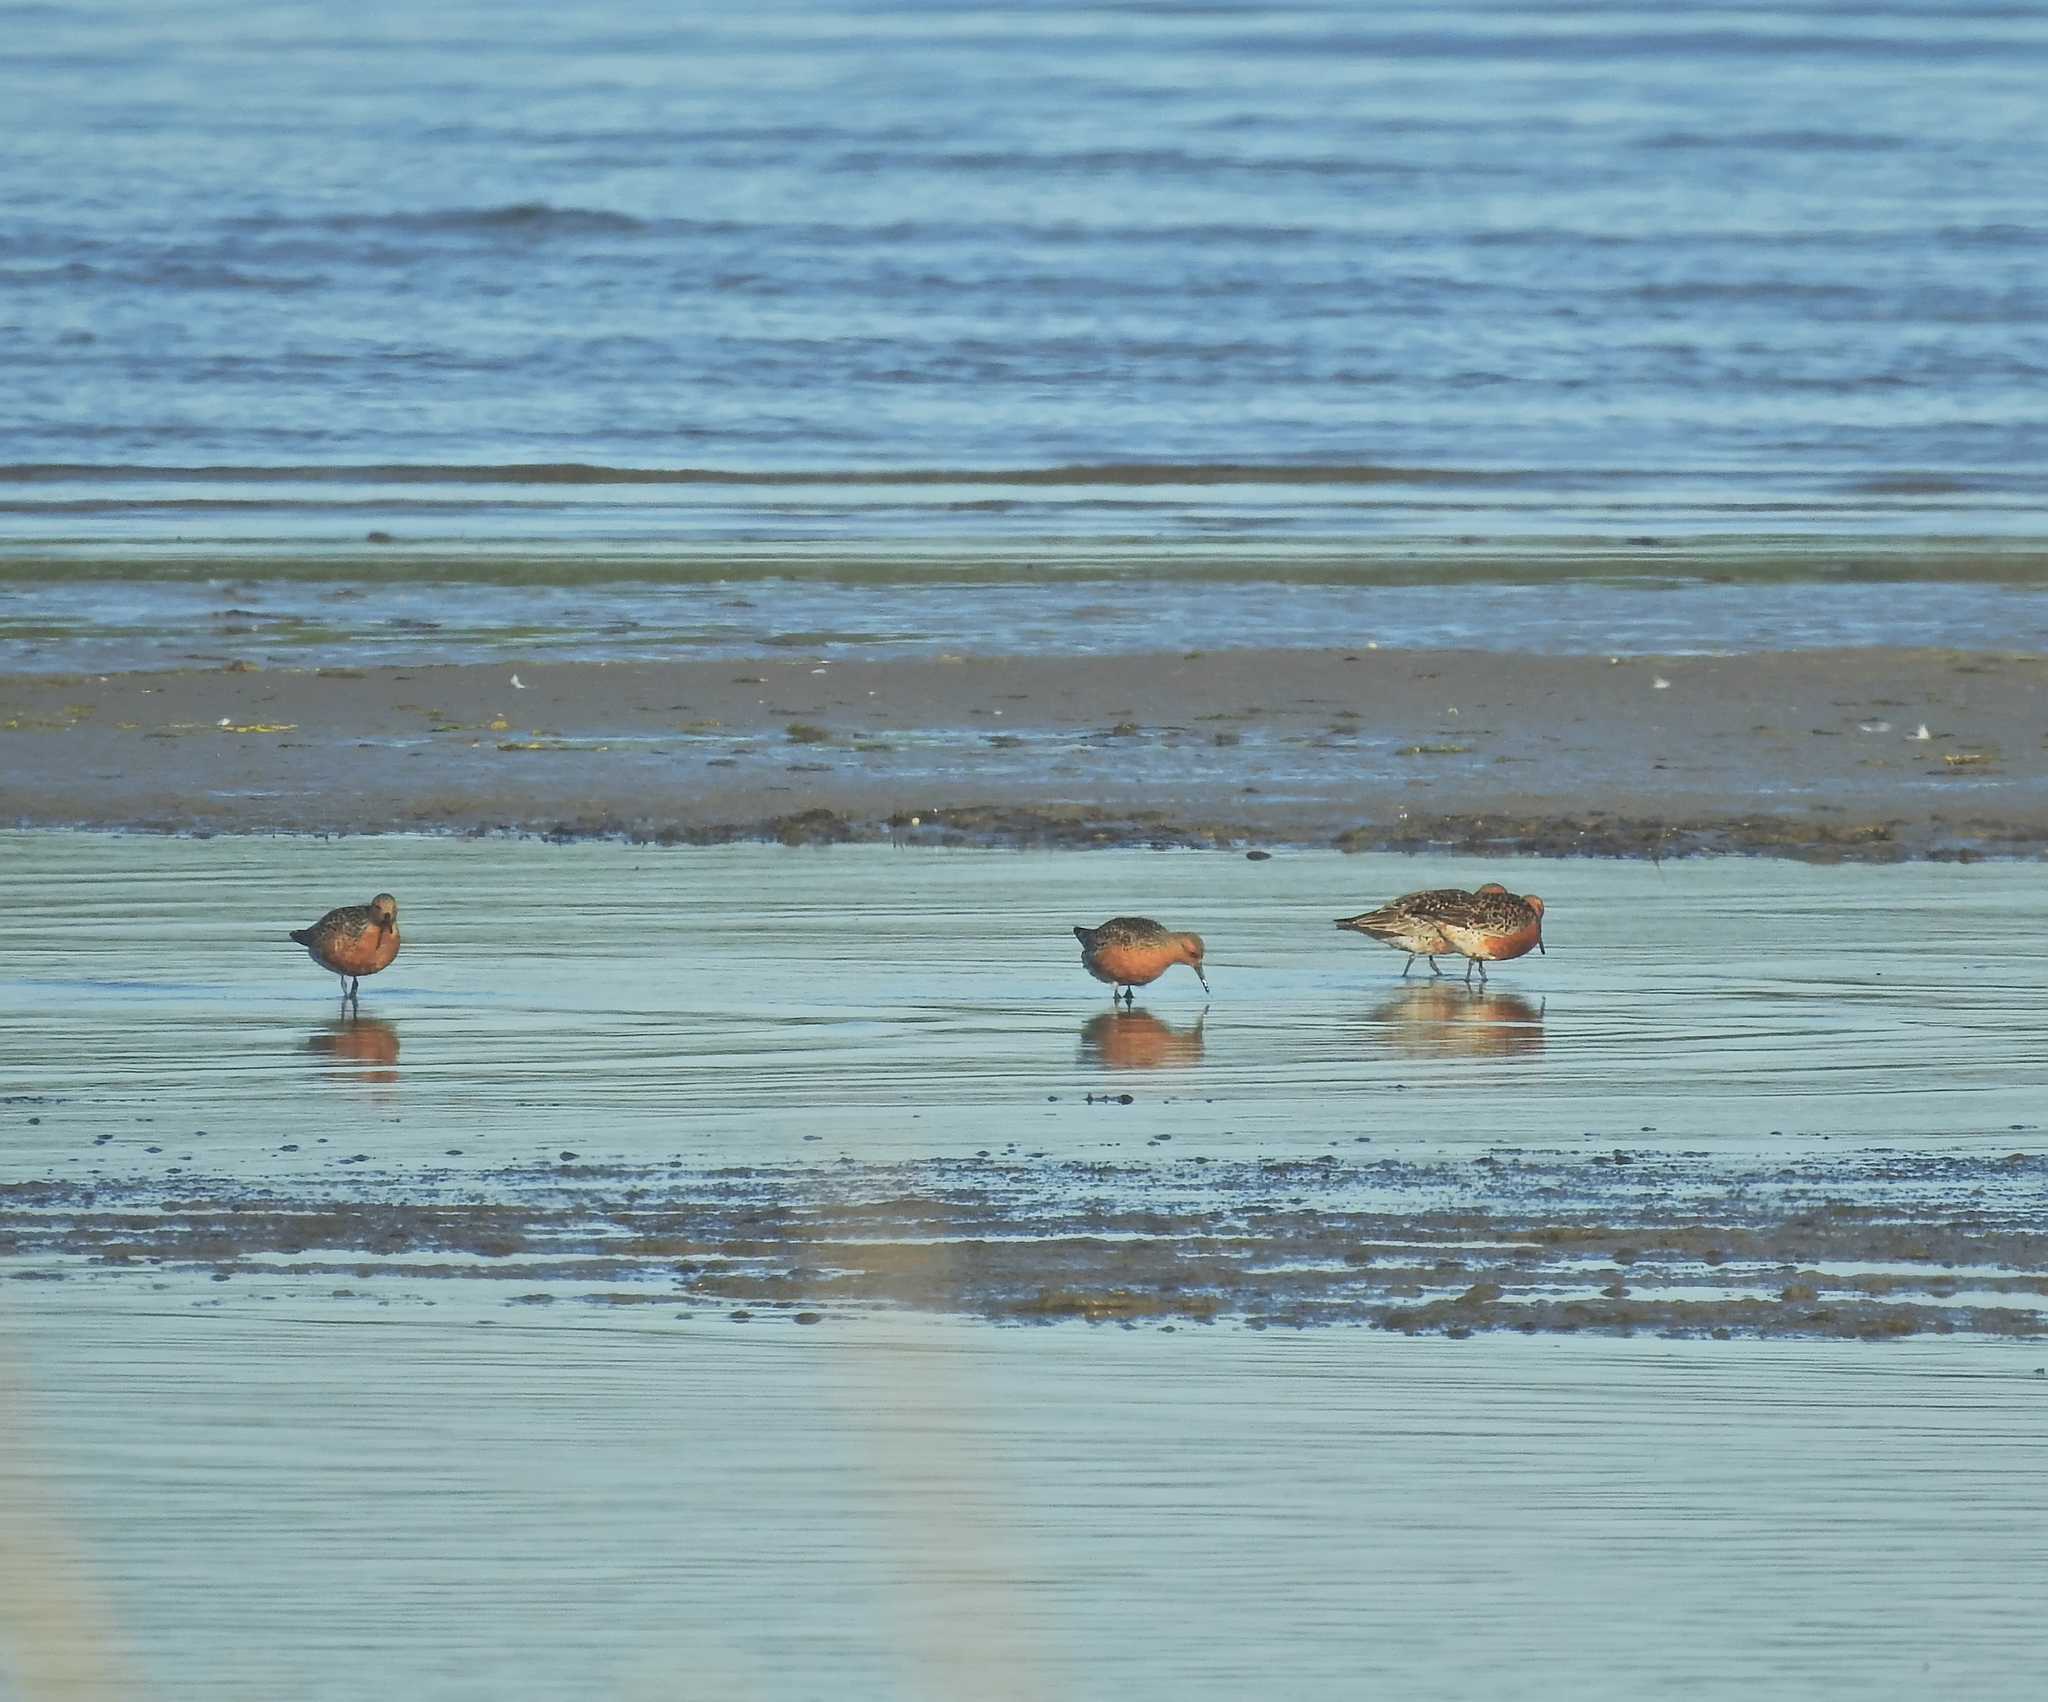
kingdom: Animalia
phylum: Chordata
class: Aves
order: Charadriiformes
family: Scolopacidae
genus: Calidris
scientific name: Calidris canutus
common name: Red knot
